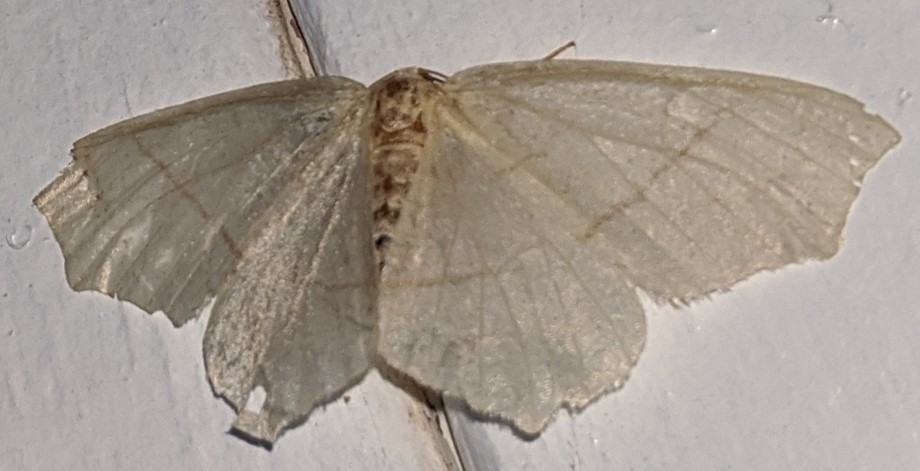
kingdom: Animalia
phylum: Arthropoda
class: Insecta
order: Lepidoptera
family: Geometridae
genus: Besma
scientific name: Besma endropiaria
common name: Straw besma
